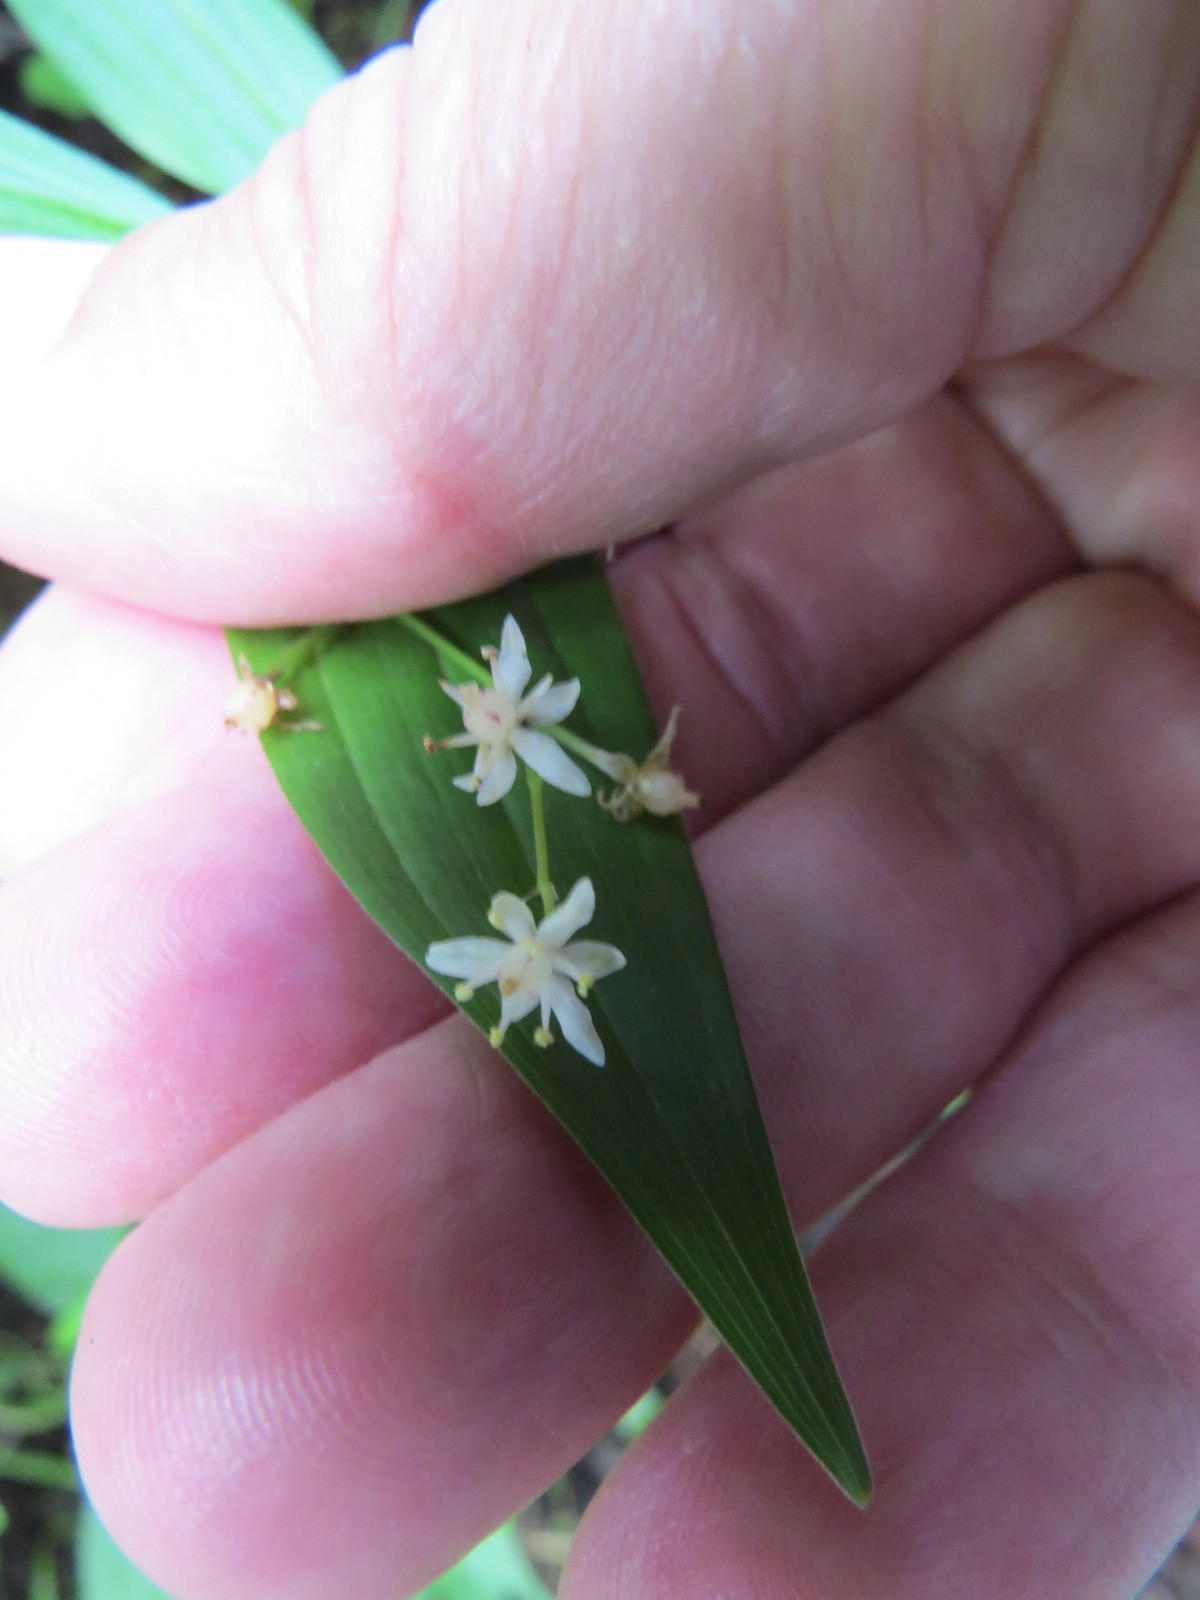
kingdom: Plantae
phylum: Tracheophyta
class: Liliopsida
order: Asparagales
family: Asparagaceae
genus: Maianthemum
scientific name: Maianthemum stellatum
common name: Little false solomon's seal
